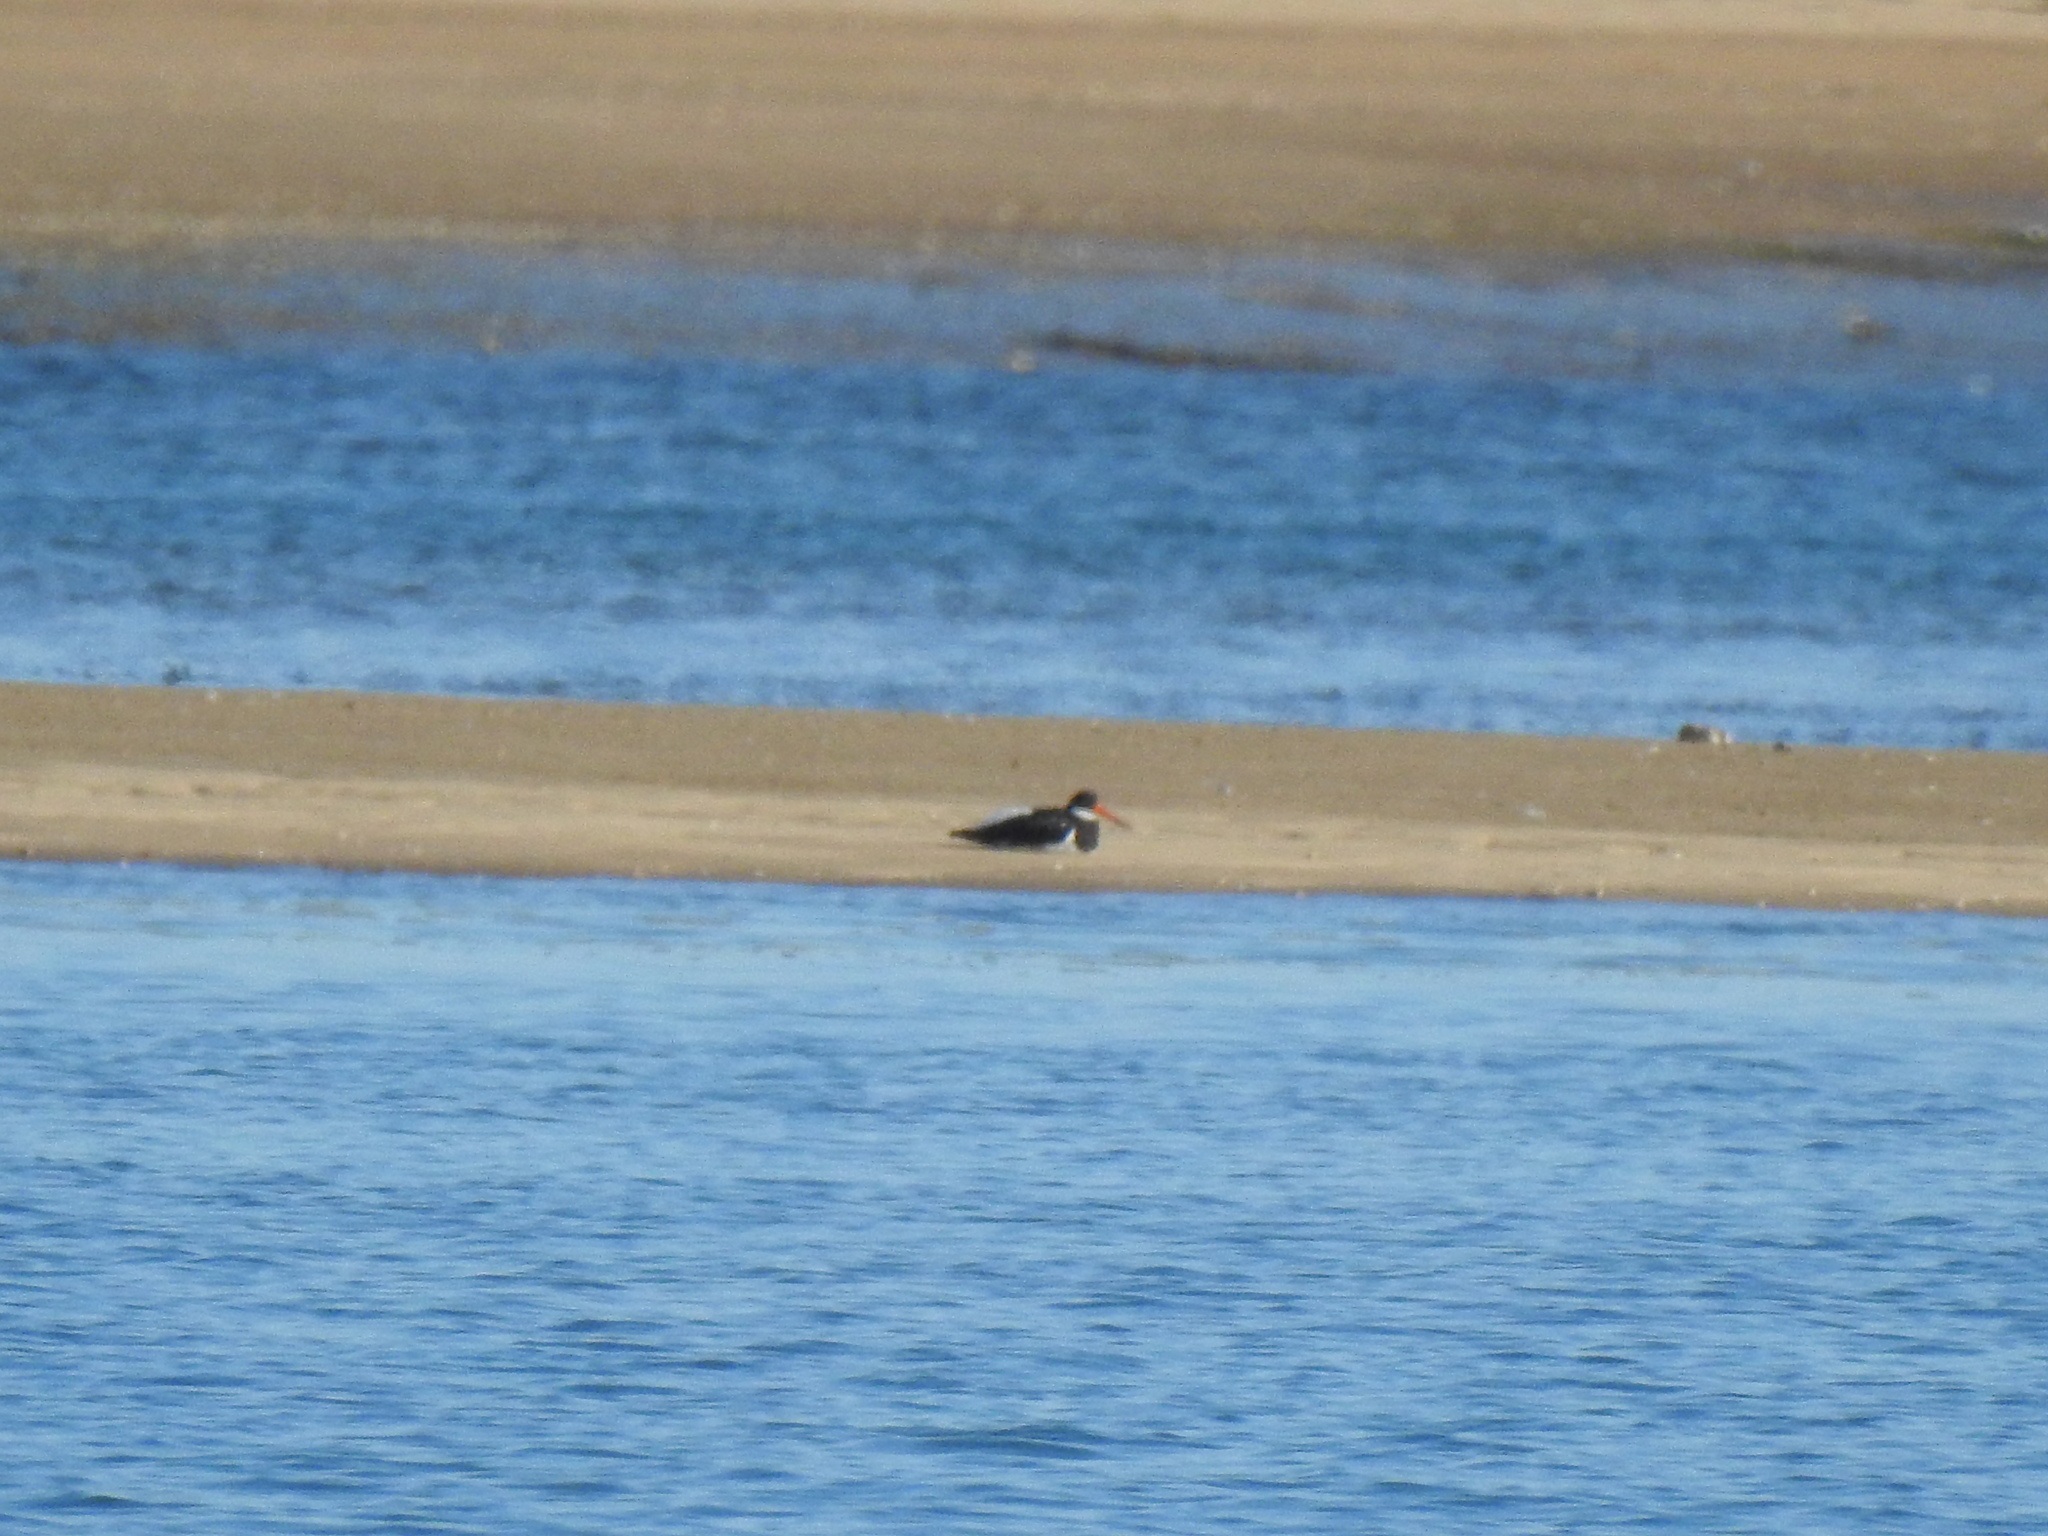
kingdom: Animalia
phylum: Chordata
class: Aves
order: Charadriiformes
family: Haematopodidae
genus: Haematopus
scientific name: Haematopus ostralegus
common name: Eurasian oystercatcher
